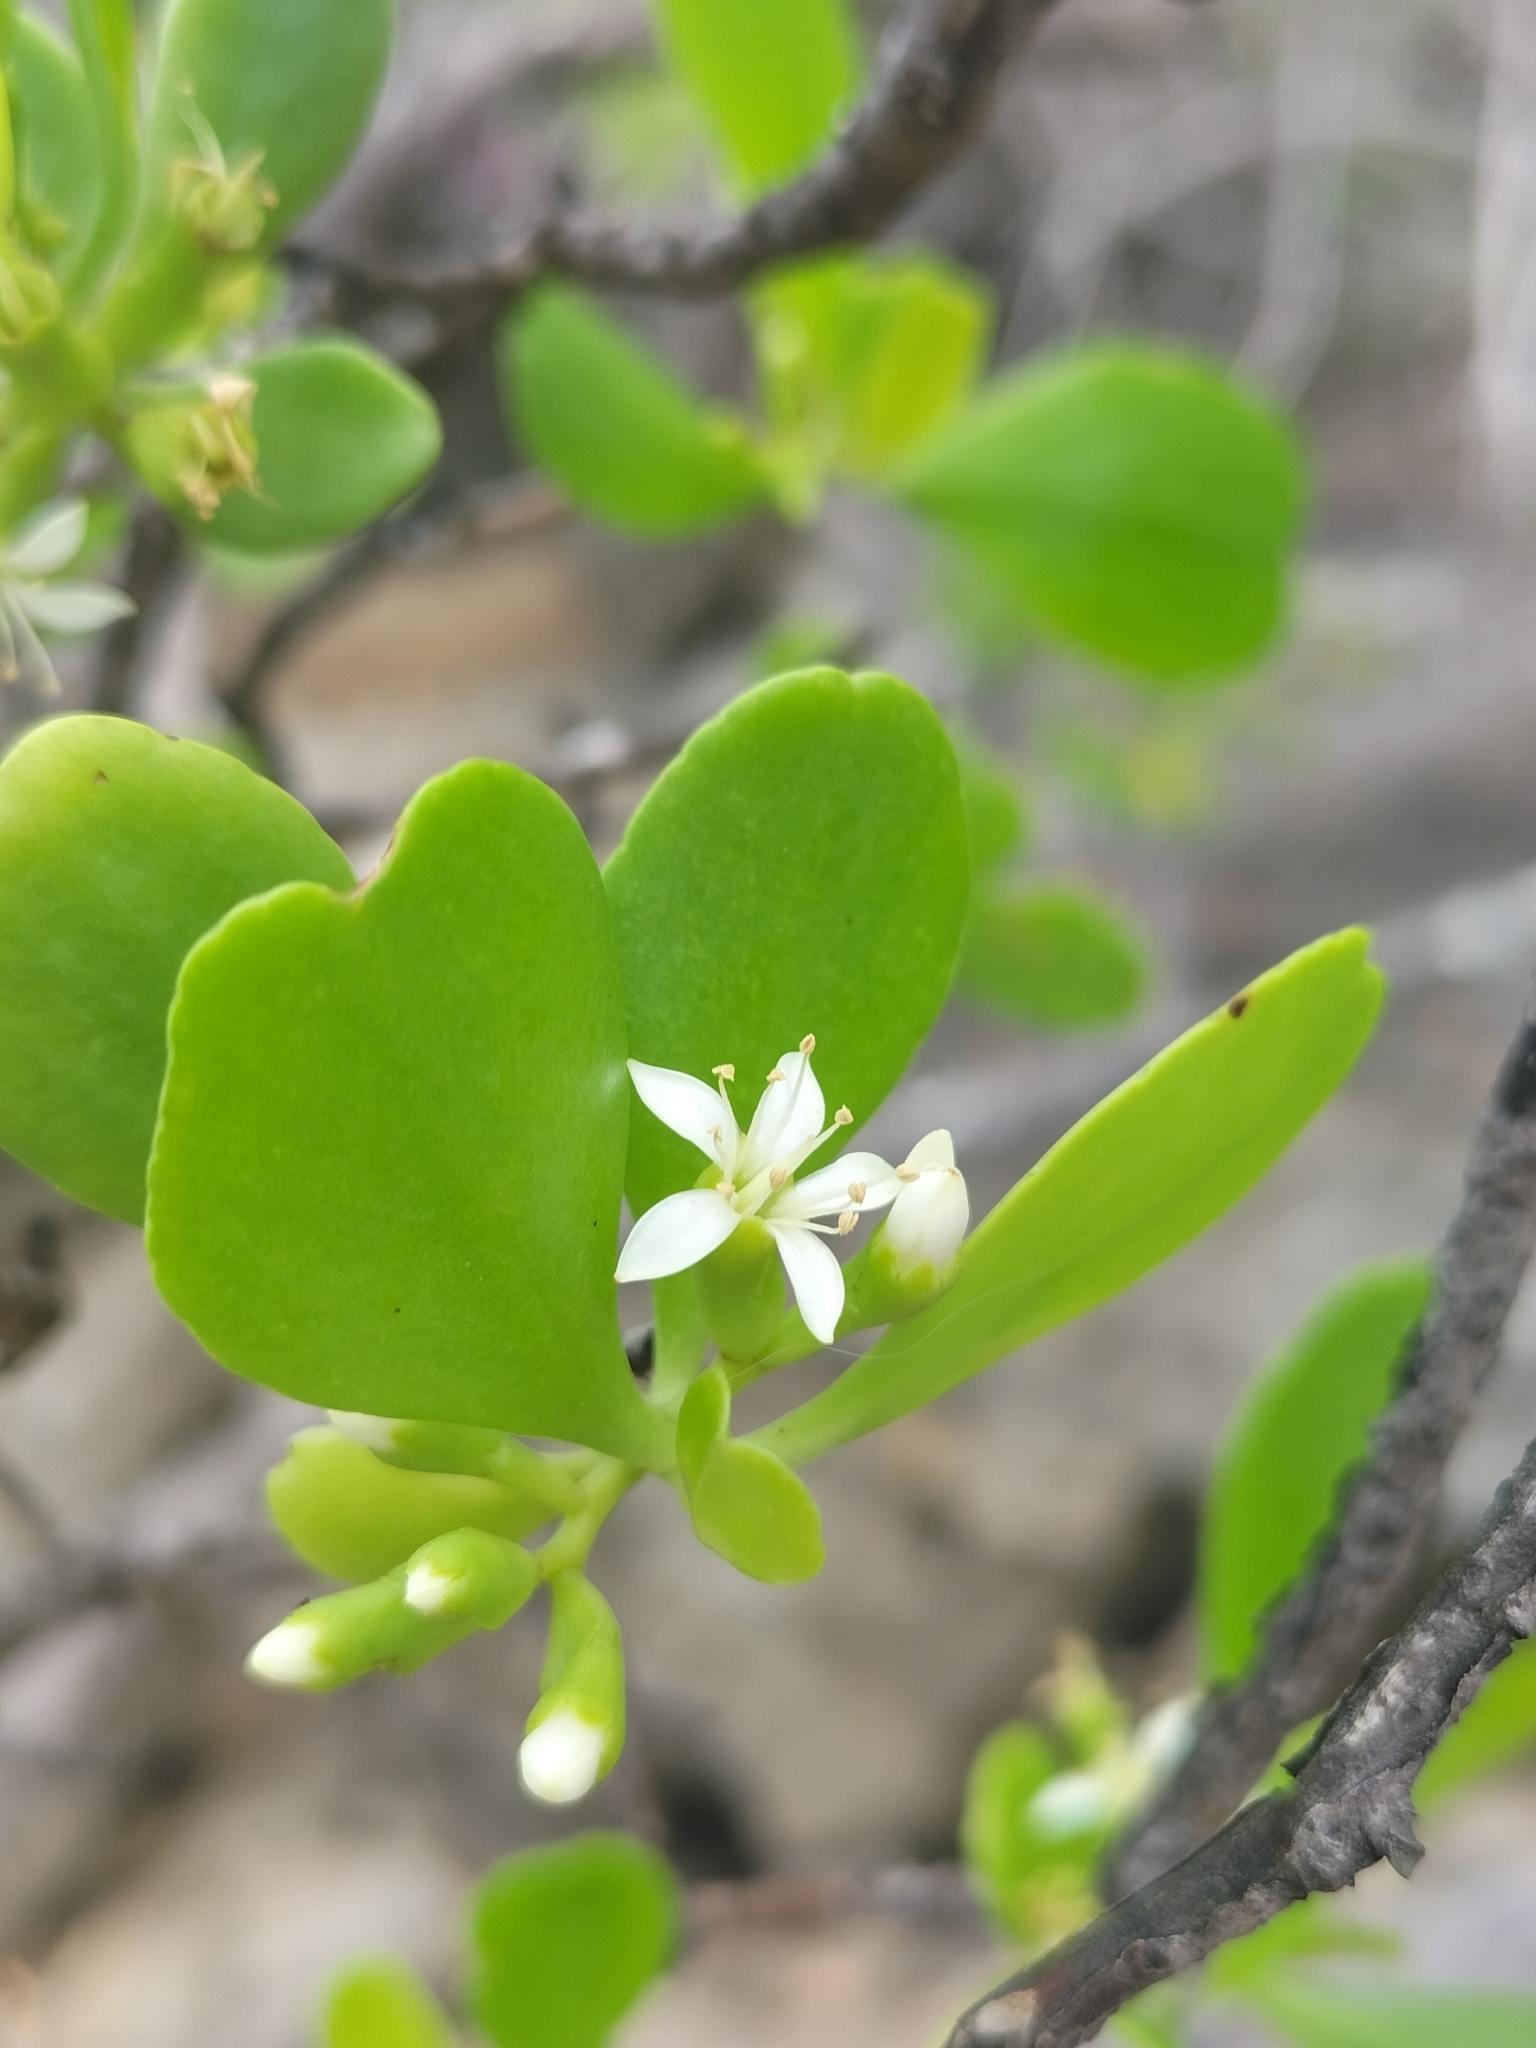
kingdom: Plantae
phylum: Tracheophyta
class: Magnoliopsida
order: Myrtales
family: Combretaceae
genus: Lumnitzera
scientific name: Lumnitzera racemosa
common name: White-flowered black mangrove
